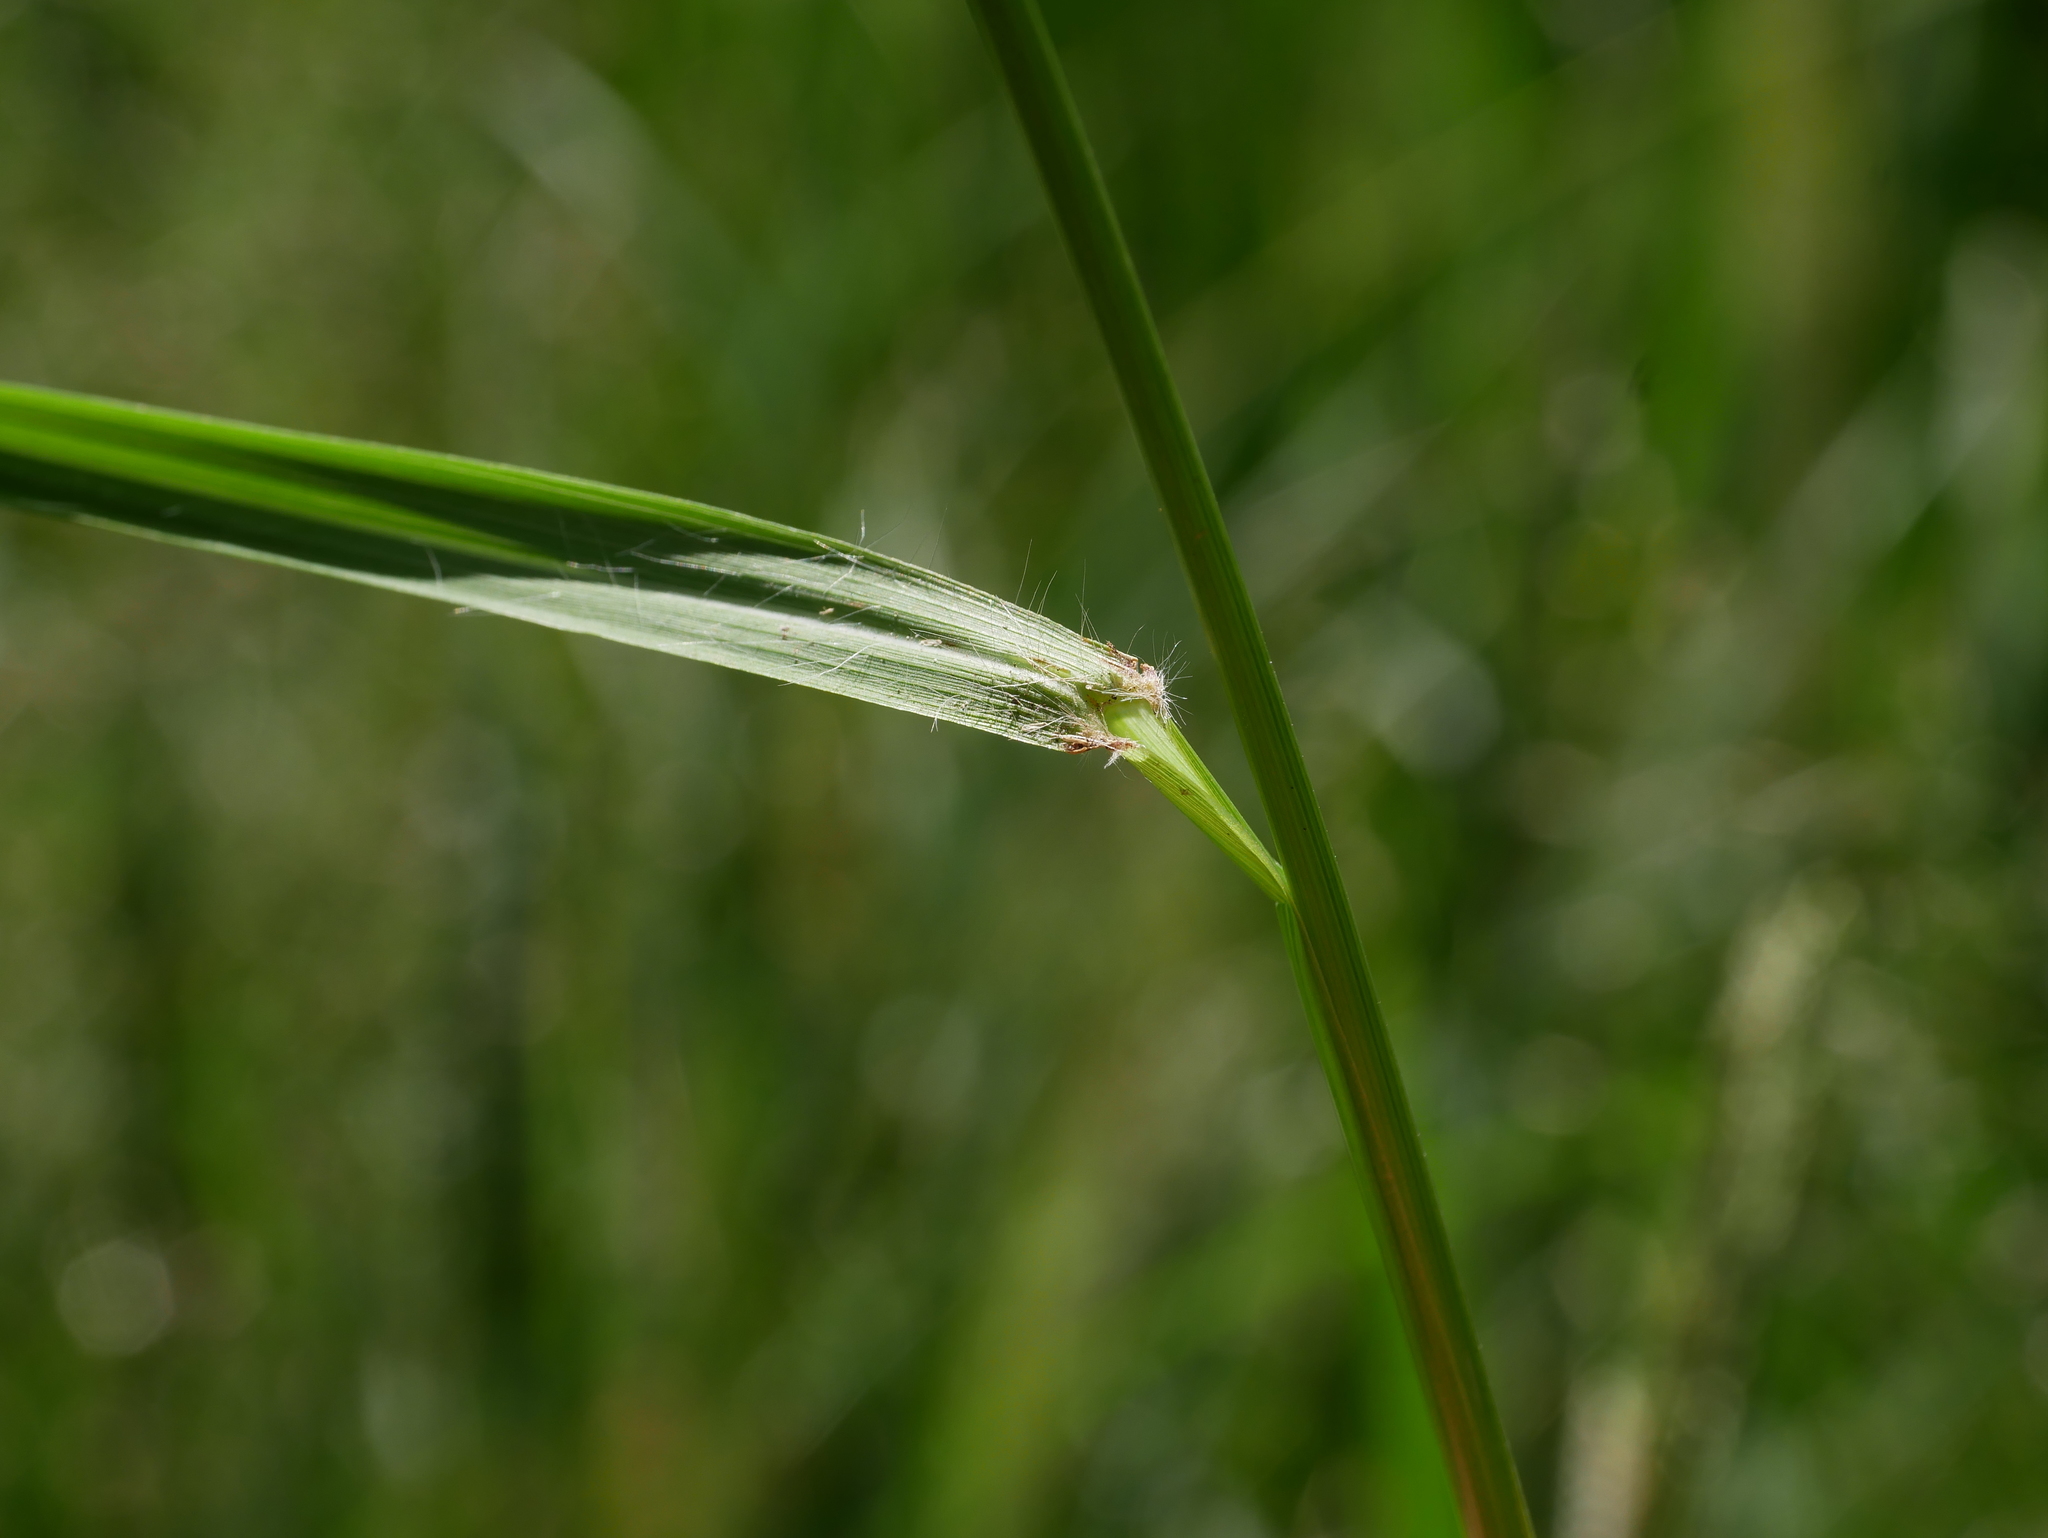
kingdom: Plantae
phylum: Tracheophyta
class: Liliopsida
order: Poales
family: Poaceae
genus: Eragrostis
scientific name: Eragrostis ferruginea
